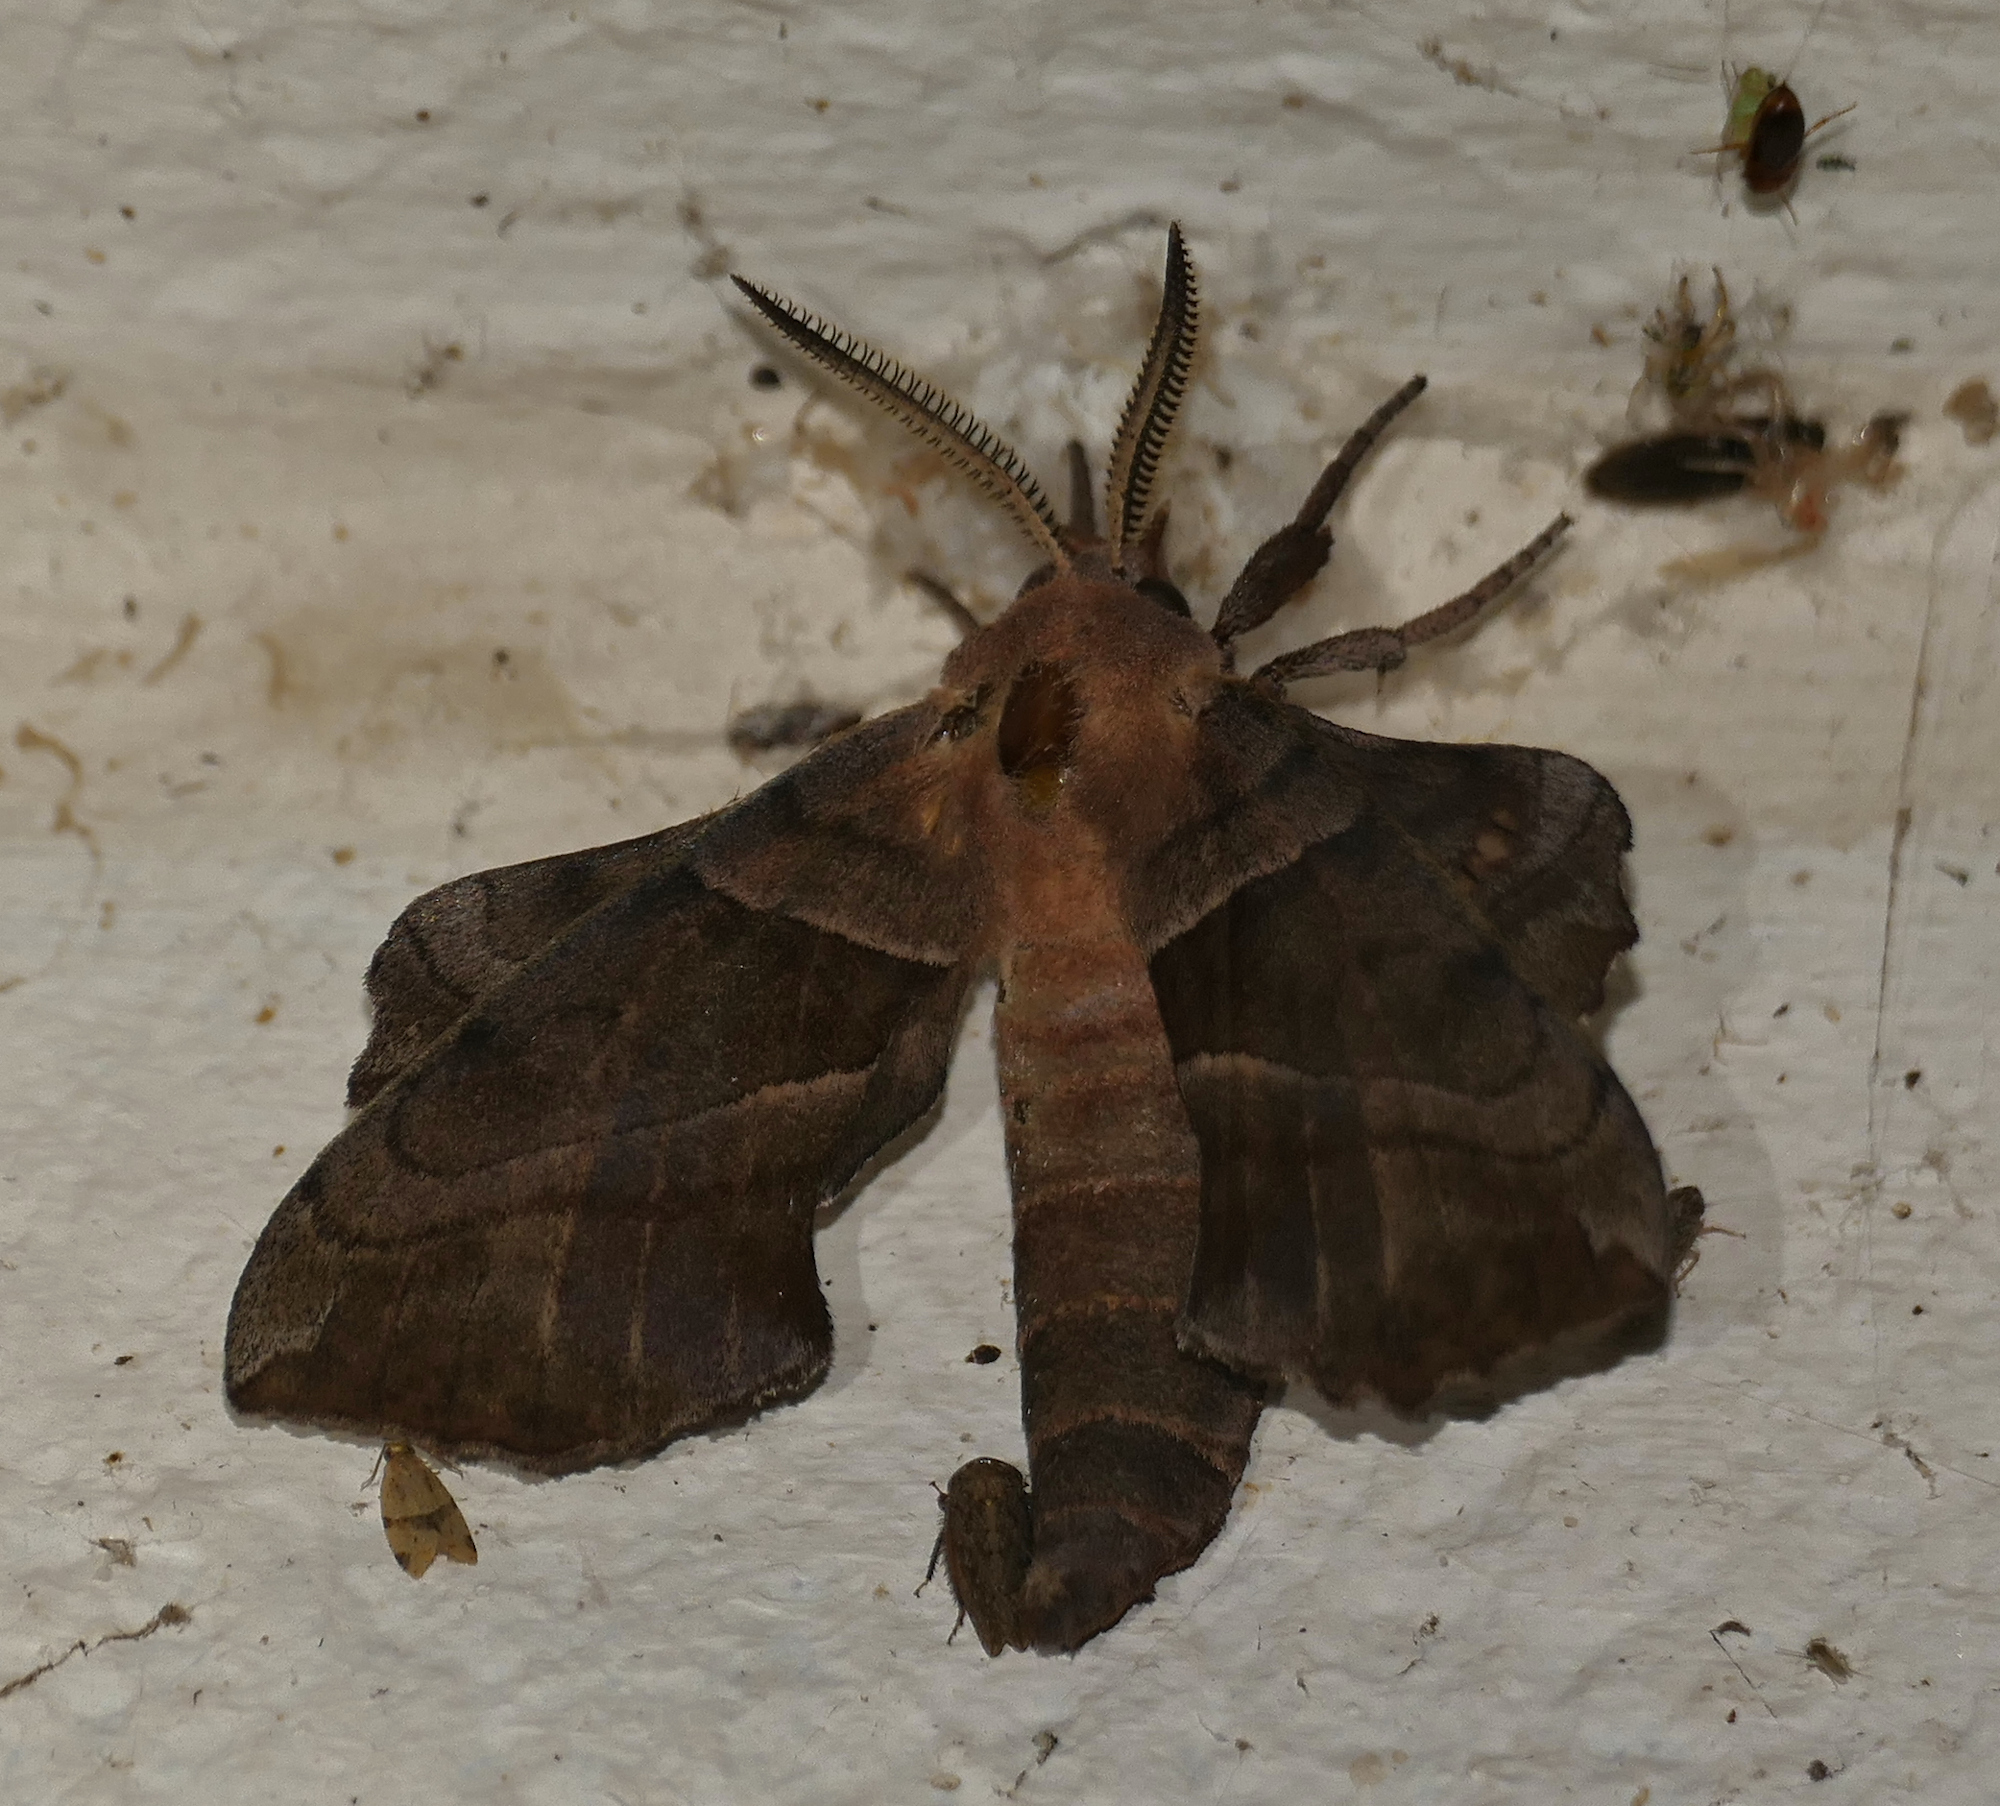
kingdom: Animalia
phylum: Arthropoda
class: Insecta
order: Lepidoptera
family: Sphingidae
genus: Amorpha
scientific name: Amorpha juglandis
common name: Walnut sphinx
